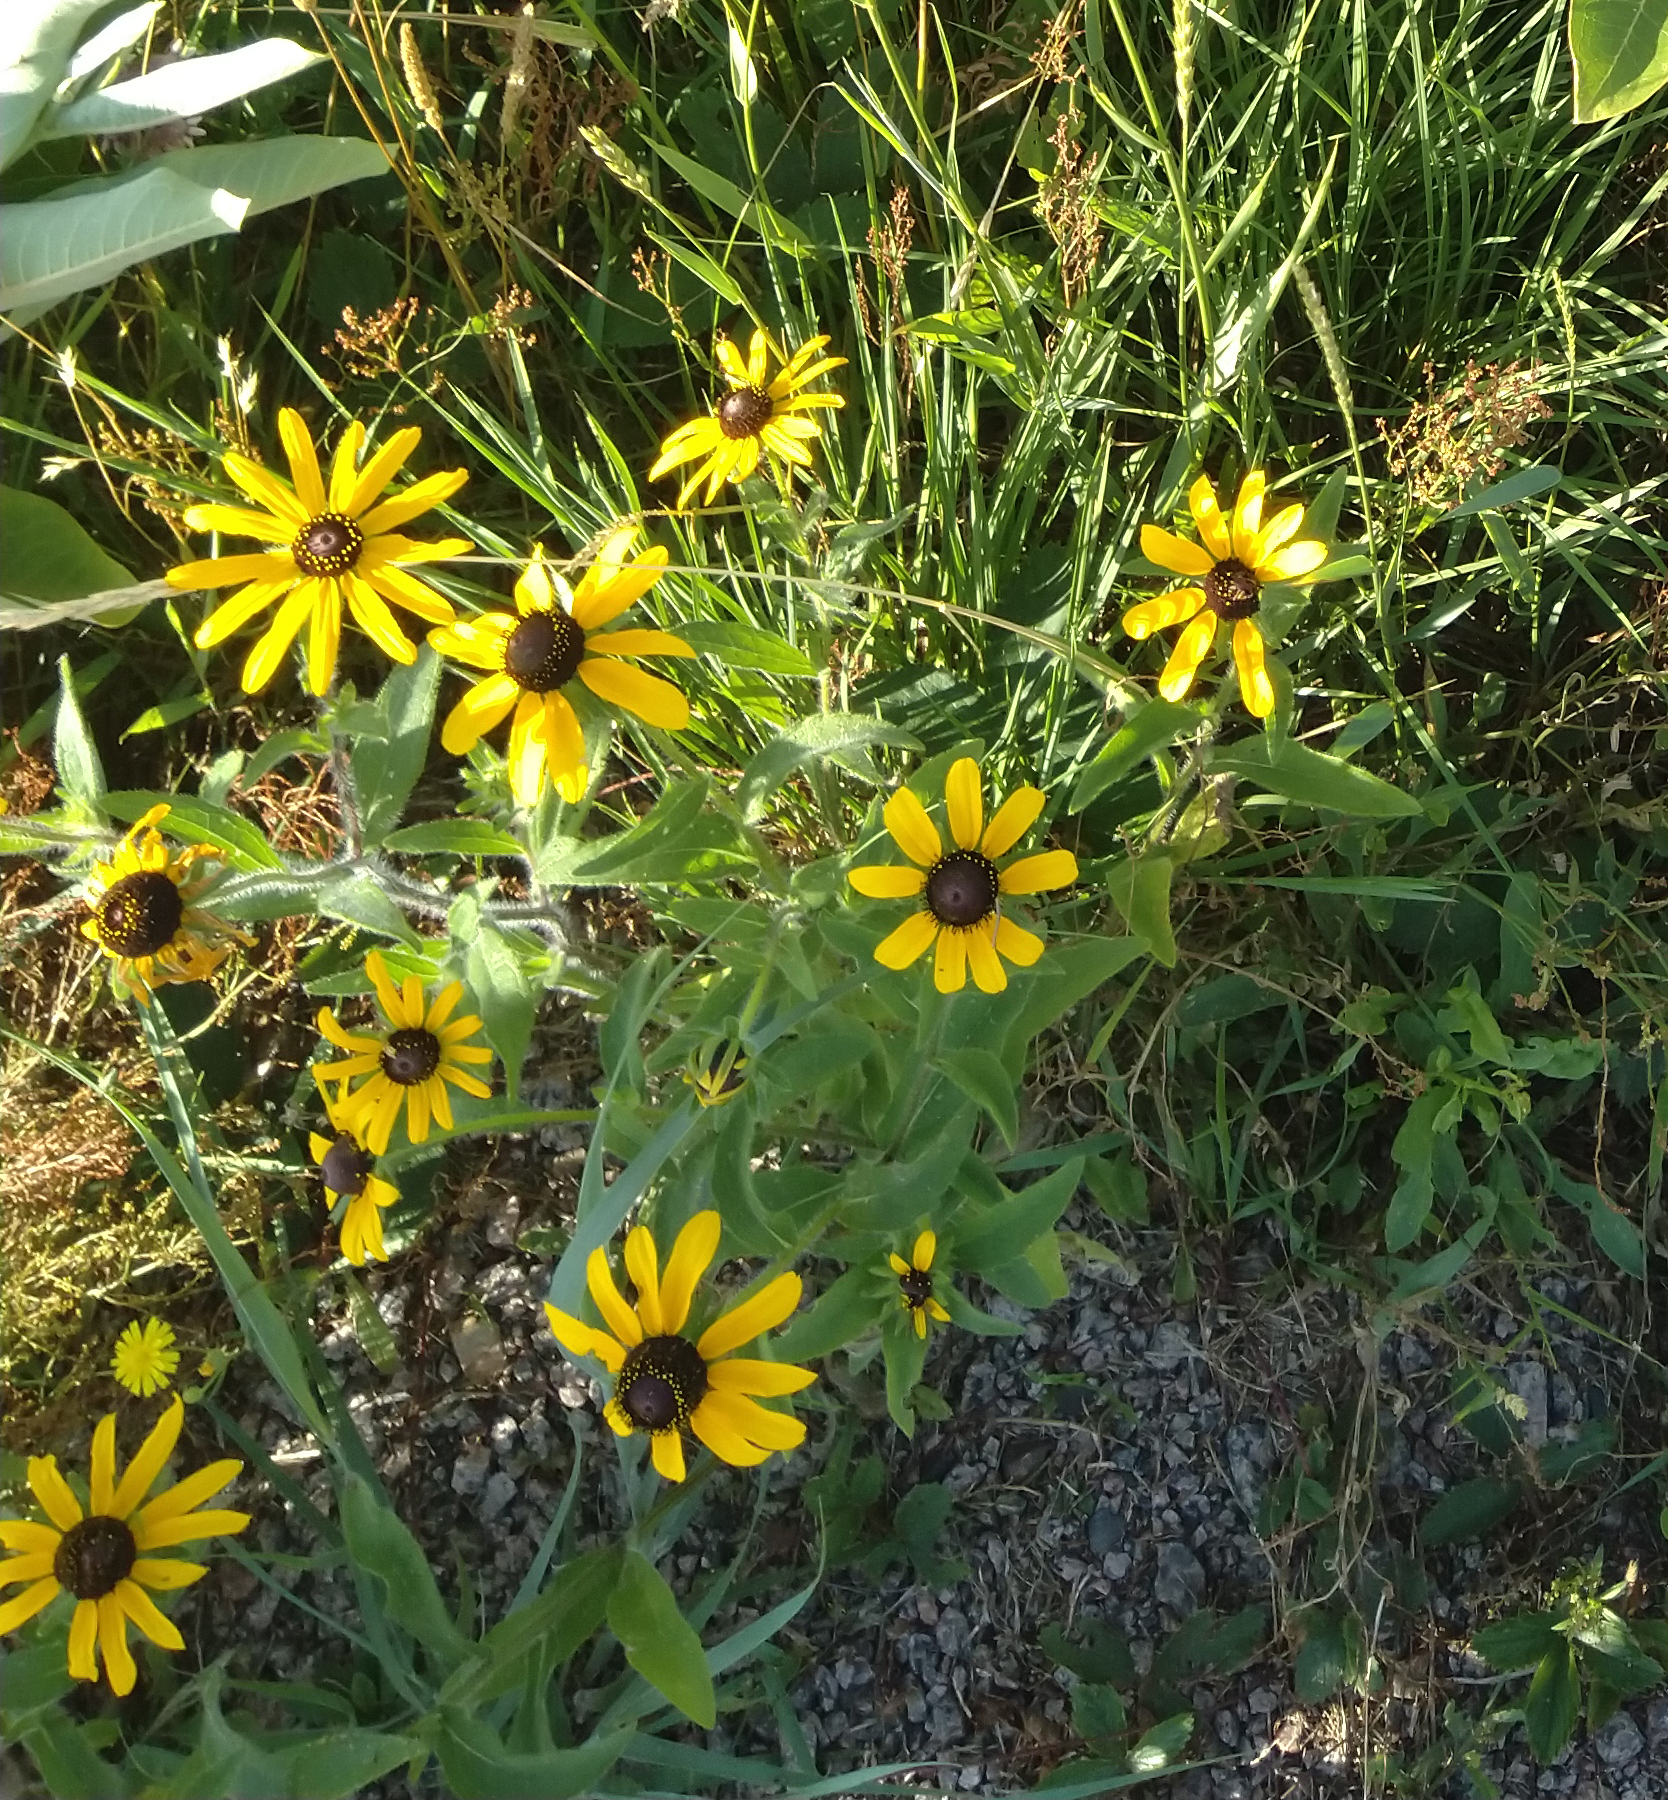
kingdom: Plantae
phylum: Tracheophyta
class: Magnoliopsida
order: Asterales
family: Asteraceae
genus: Rudbeckia
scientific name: Rudbeckia hirta
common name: Black-eyed-susan
